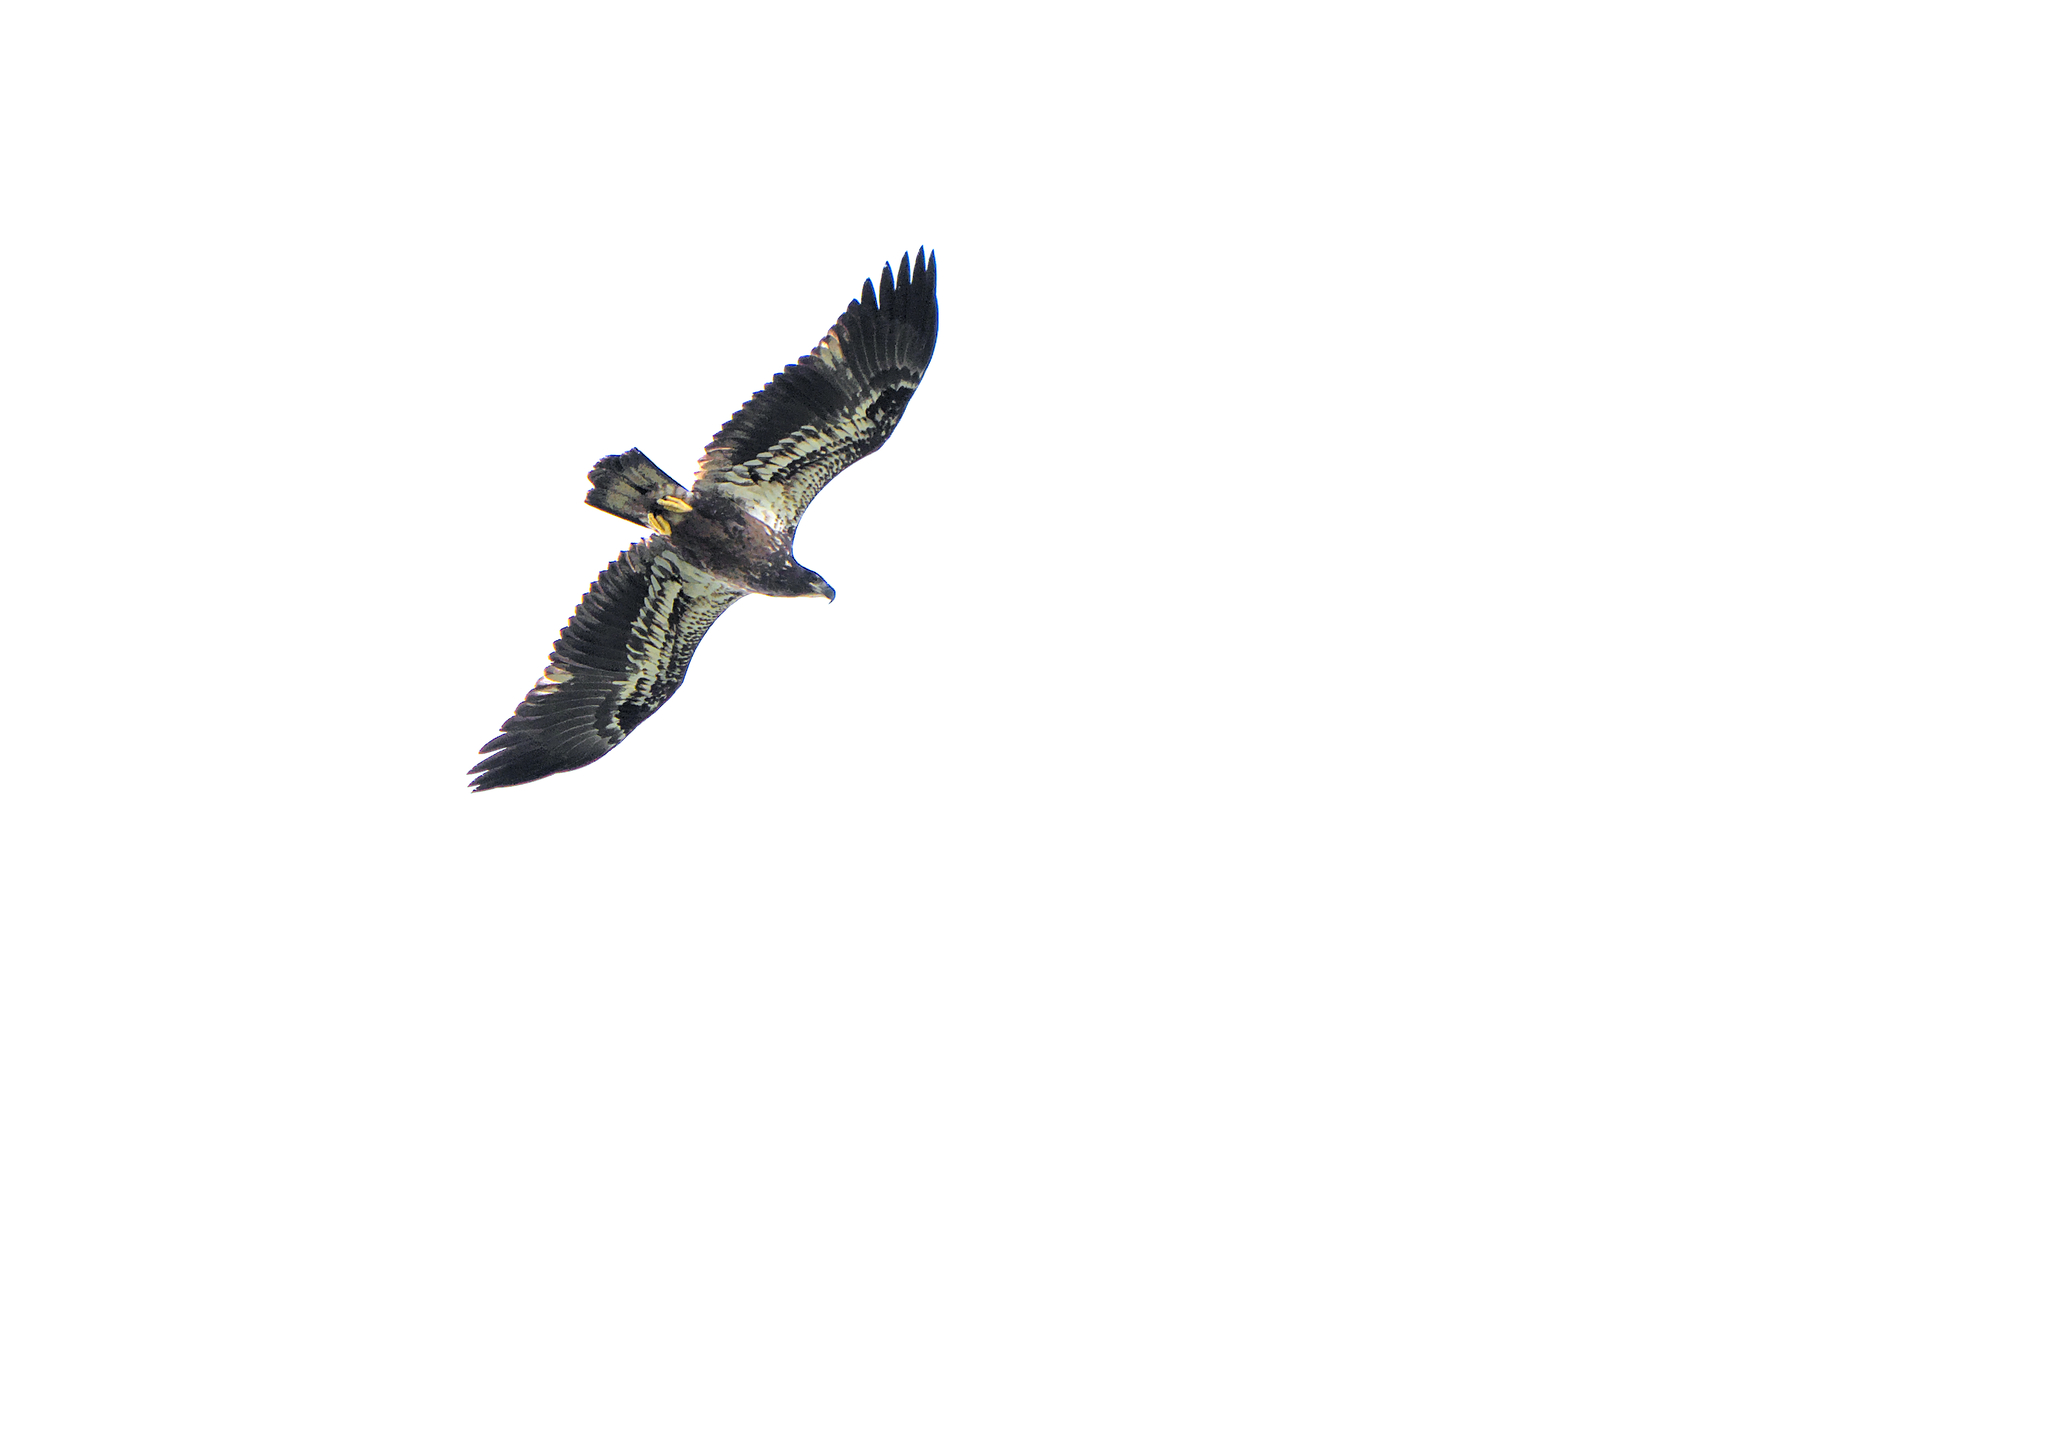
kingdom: Animalia
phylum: Chordata
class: Aves
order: Accipitriformes
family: Accipitridae
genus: Haliaeetus
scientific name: Haliaeetus leucocephalus
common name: Bald eagle
